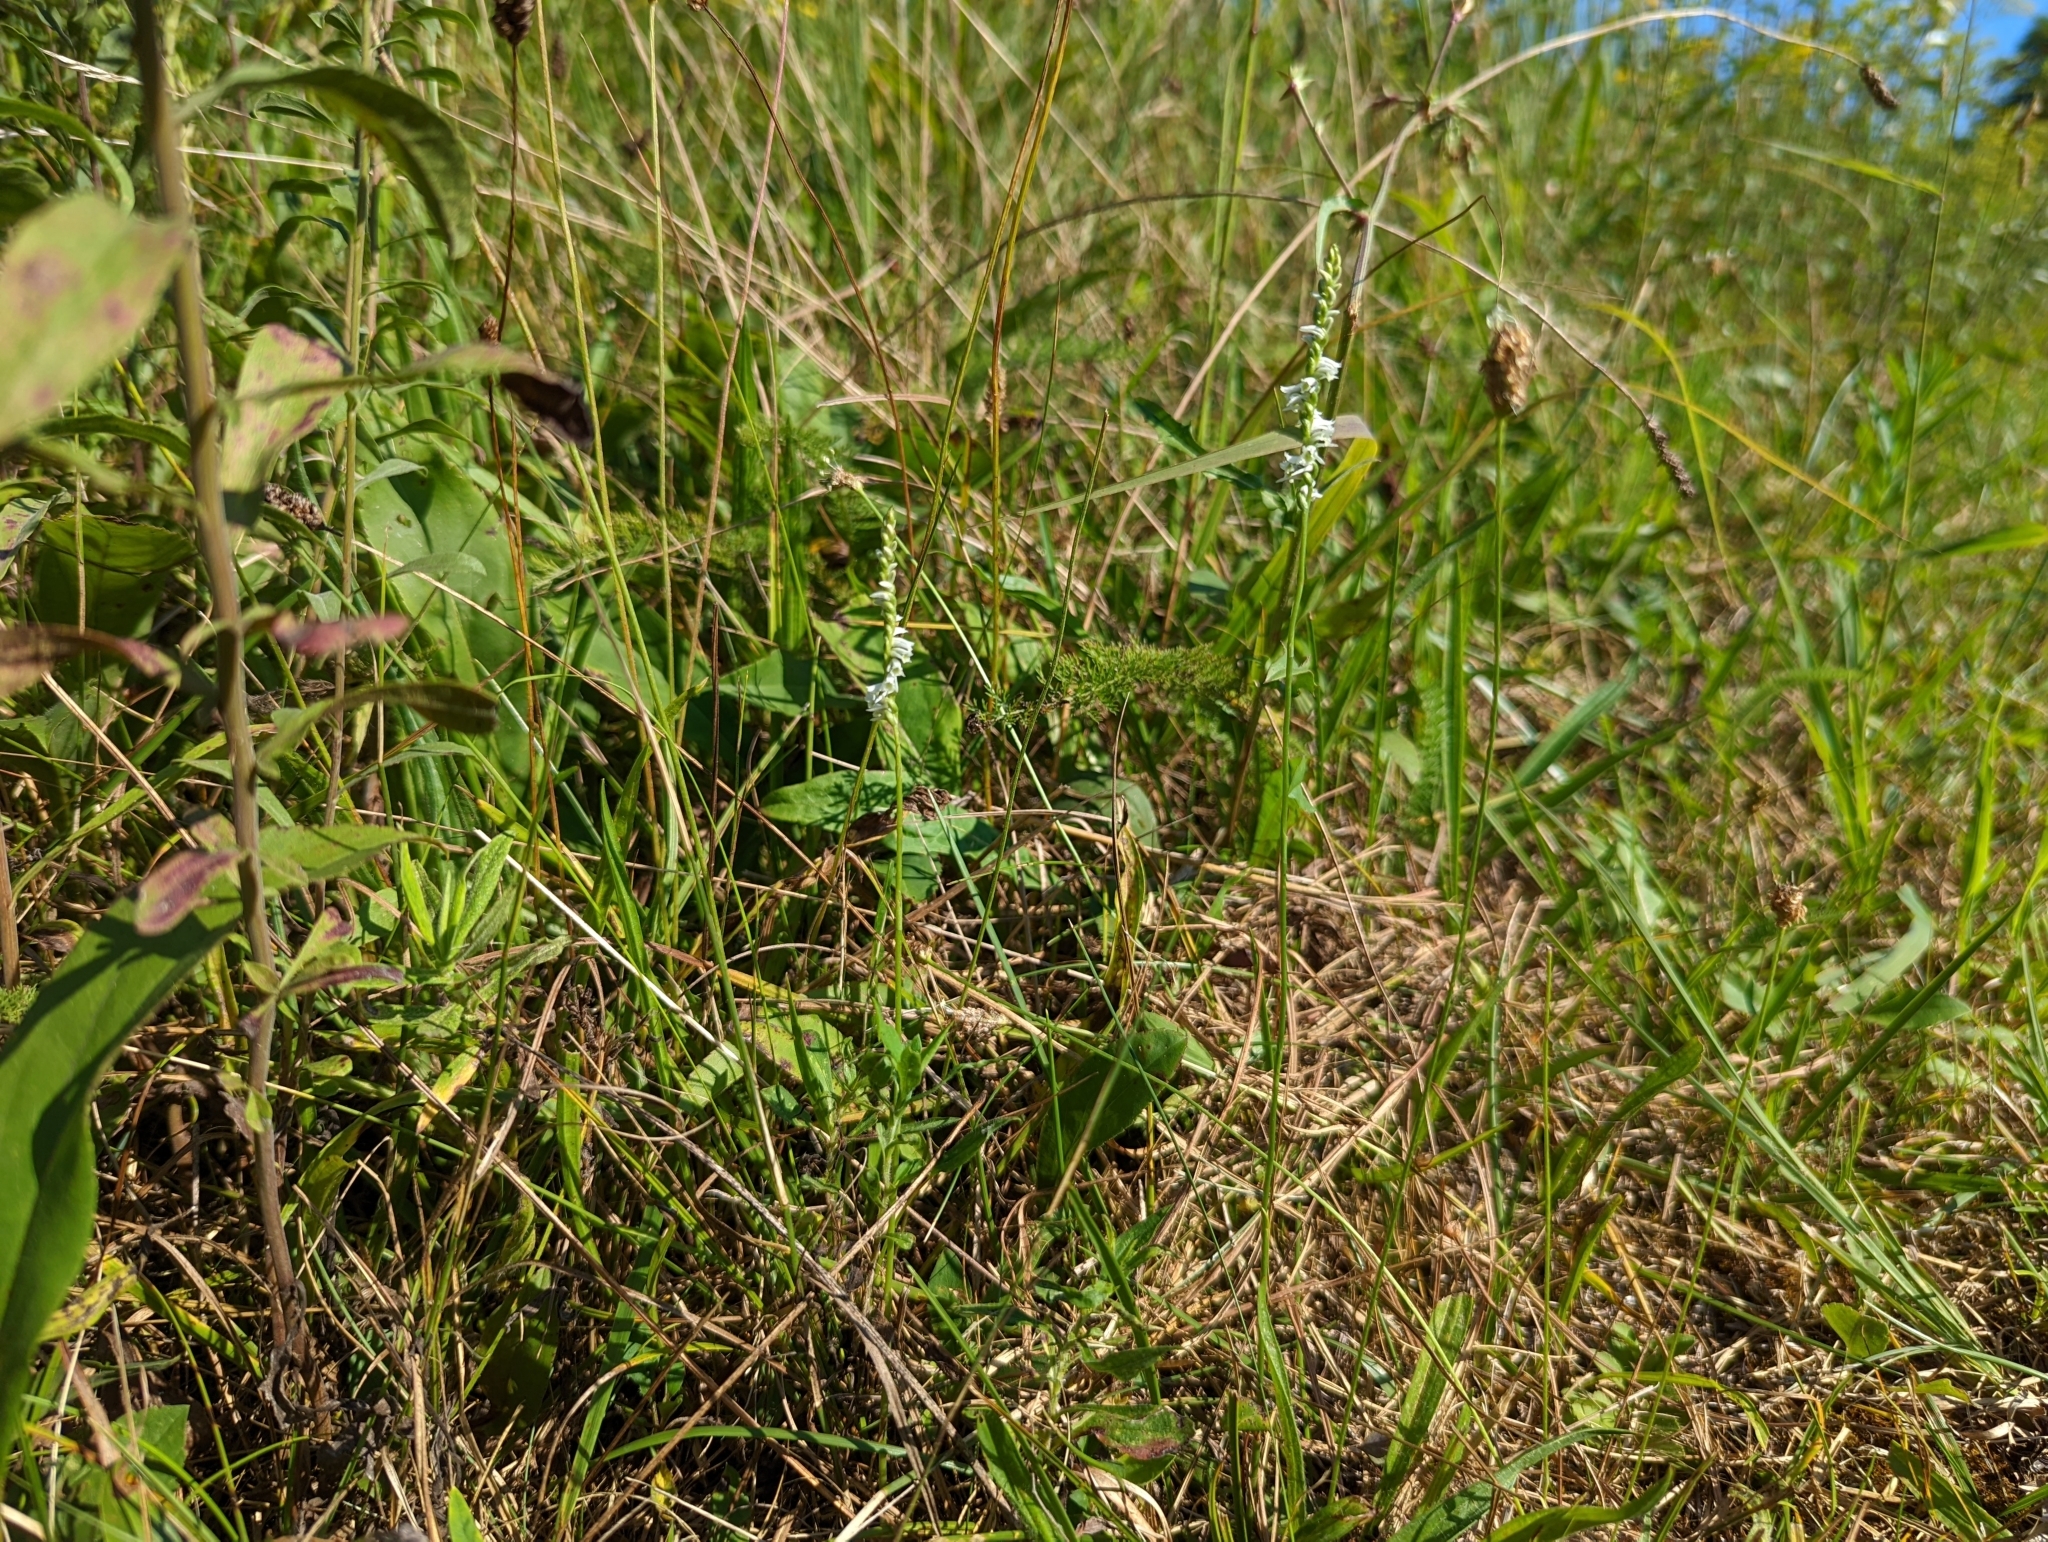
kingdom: Plantae
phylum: Tracheophyta
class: Liliopsida
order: Asparagales
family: Orchidaceae
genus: Spiranthes
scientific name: Spiranthes lacera
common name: Northern slender ladies'-tresses
